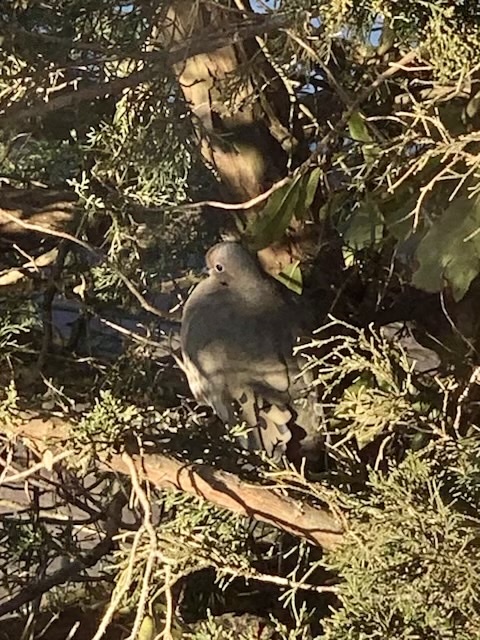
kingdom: Animalia
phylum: Chordata
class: Aves
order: Columbiformes
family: Columbidae
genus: Zenaida
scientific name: Zenaida macroura
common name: Mourning dove
